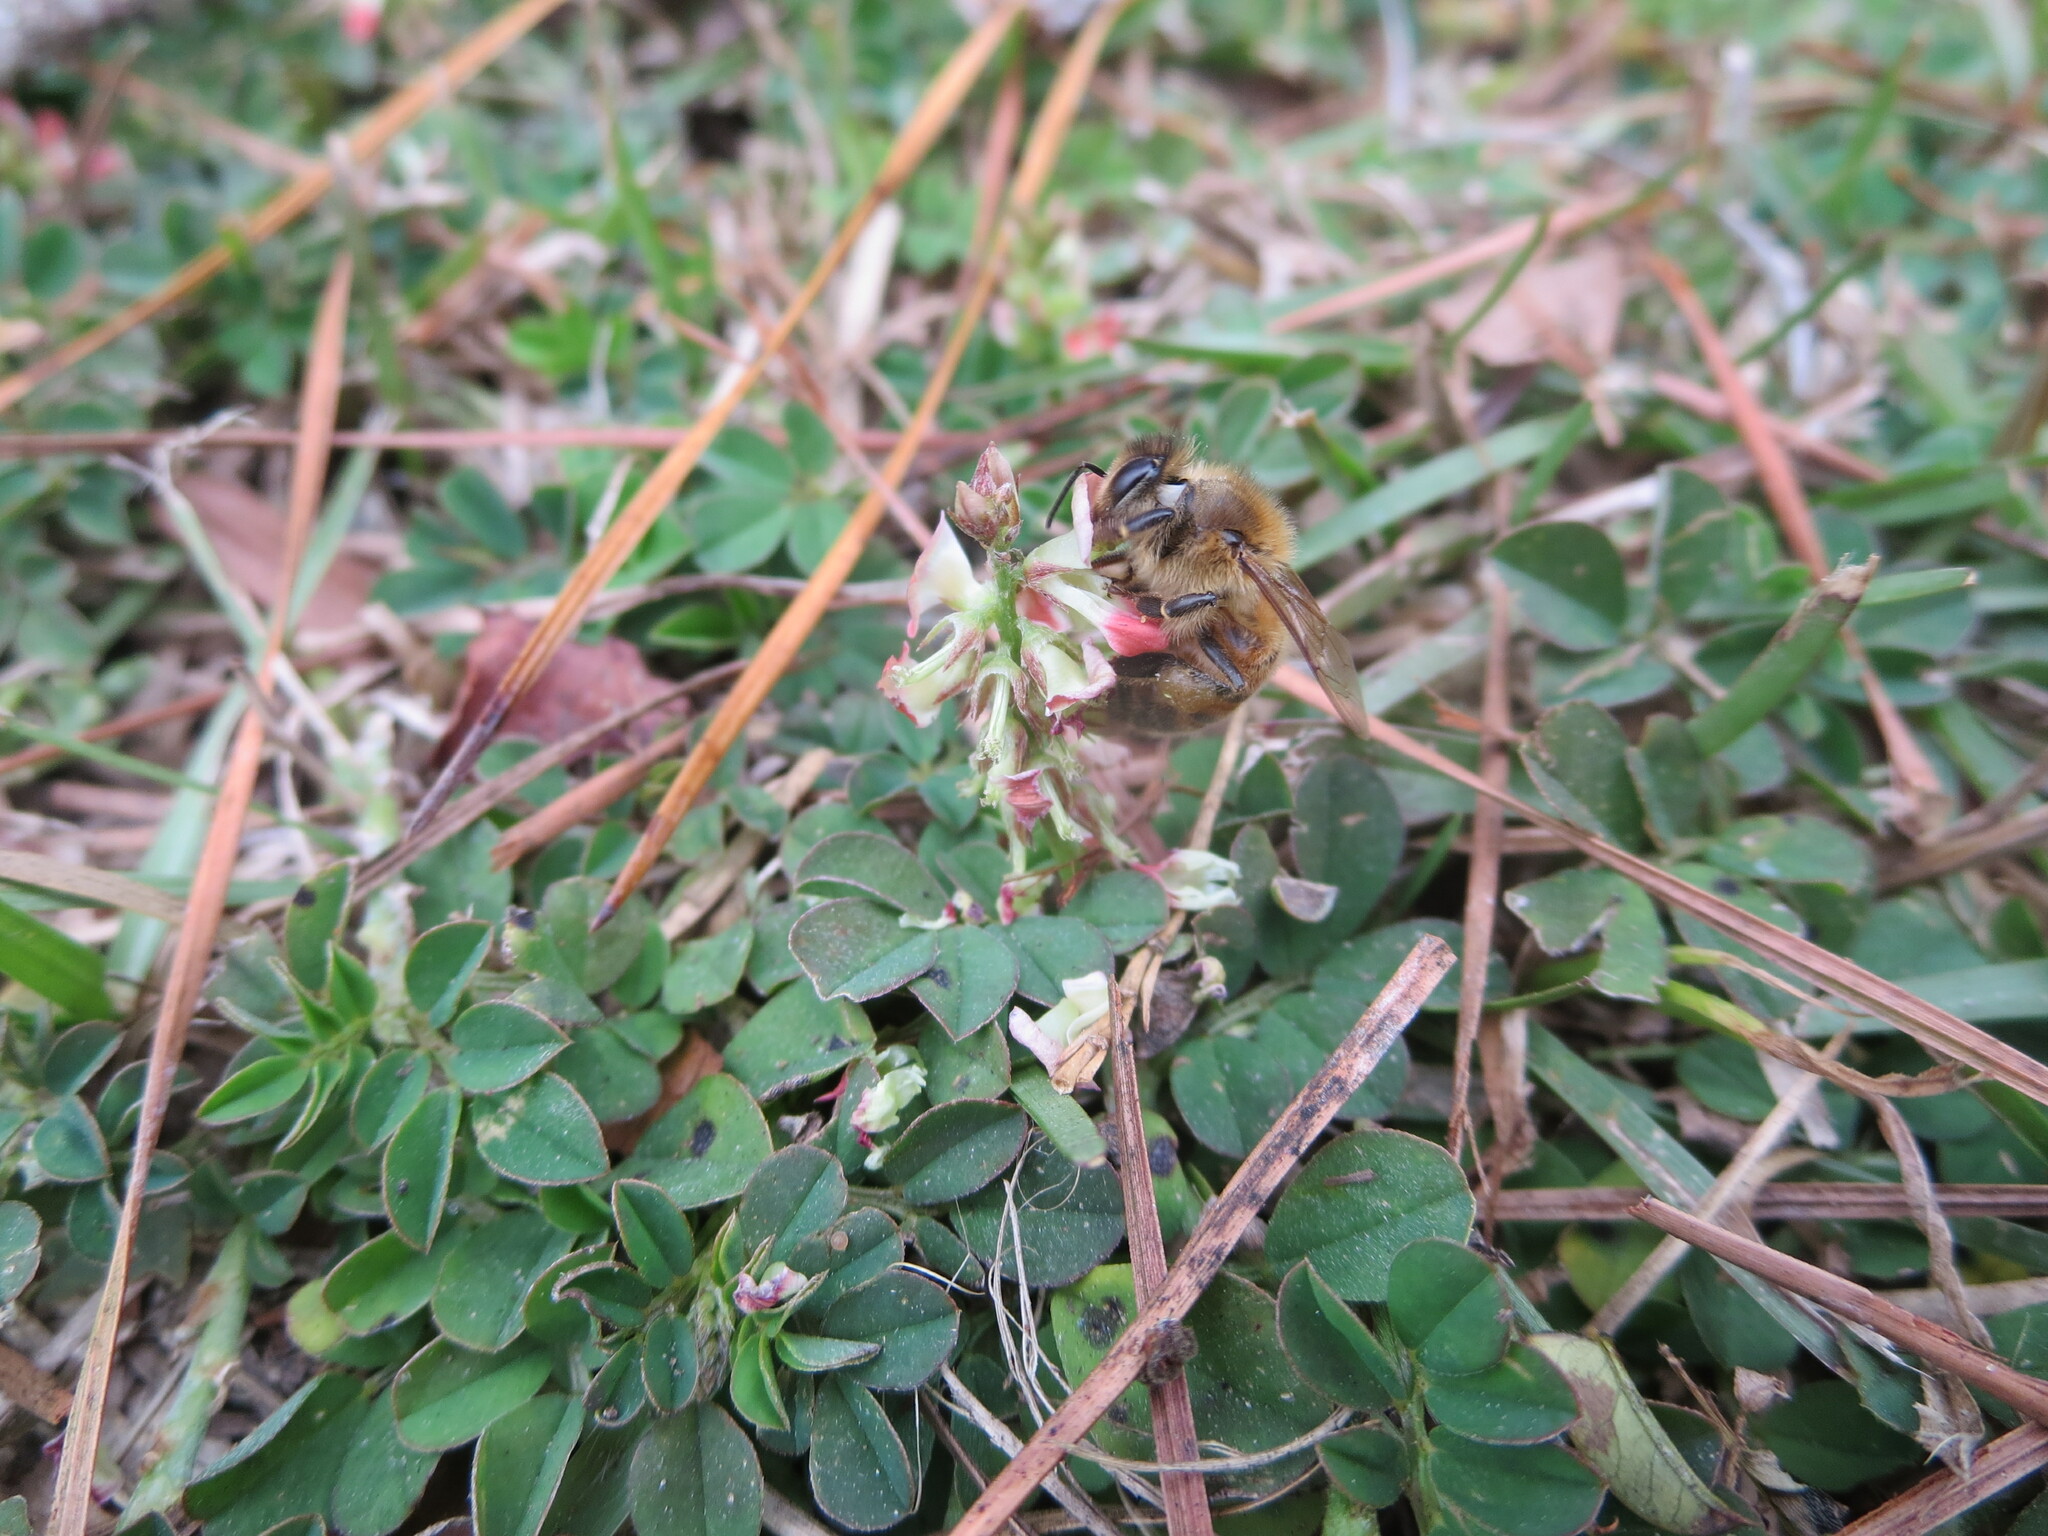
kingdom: Animalia
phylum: Arthropoda
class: Insecta
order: Hymenoptera
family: Apidae
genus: Apis
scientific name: Apis mellifera
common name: Honey bee
